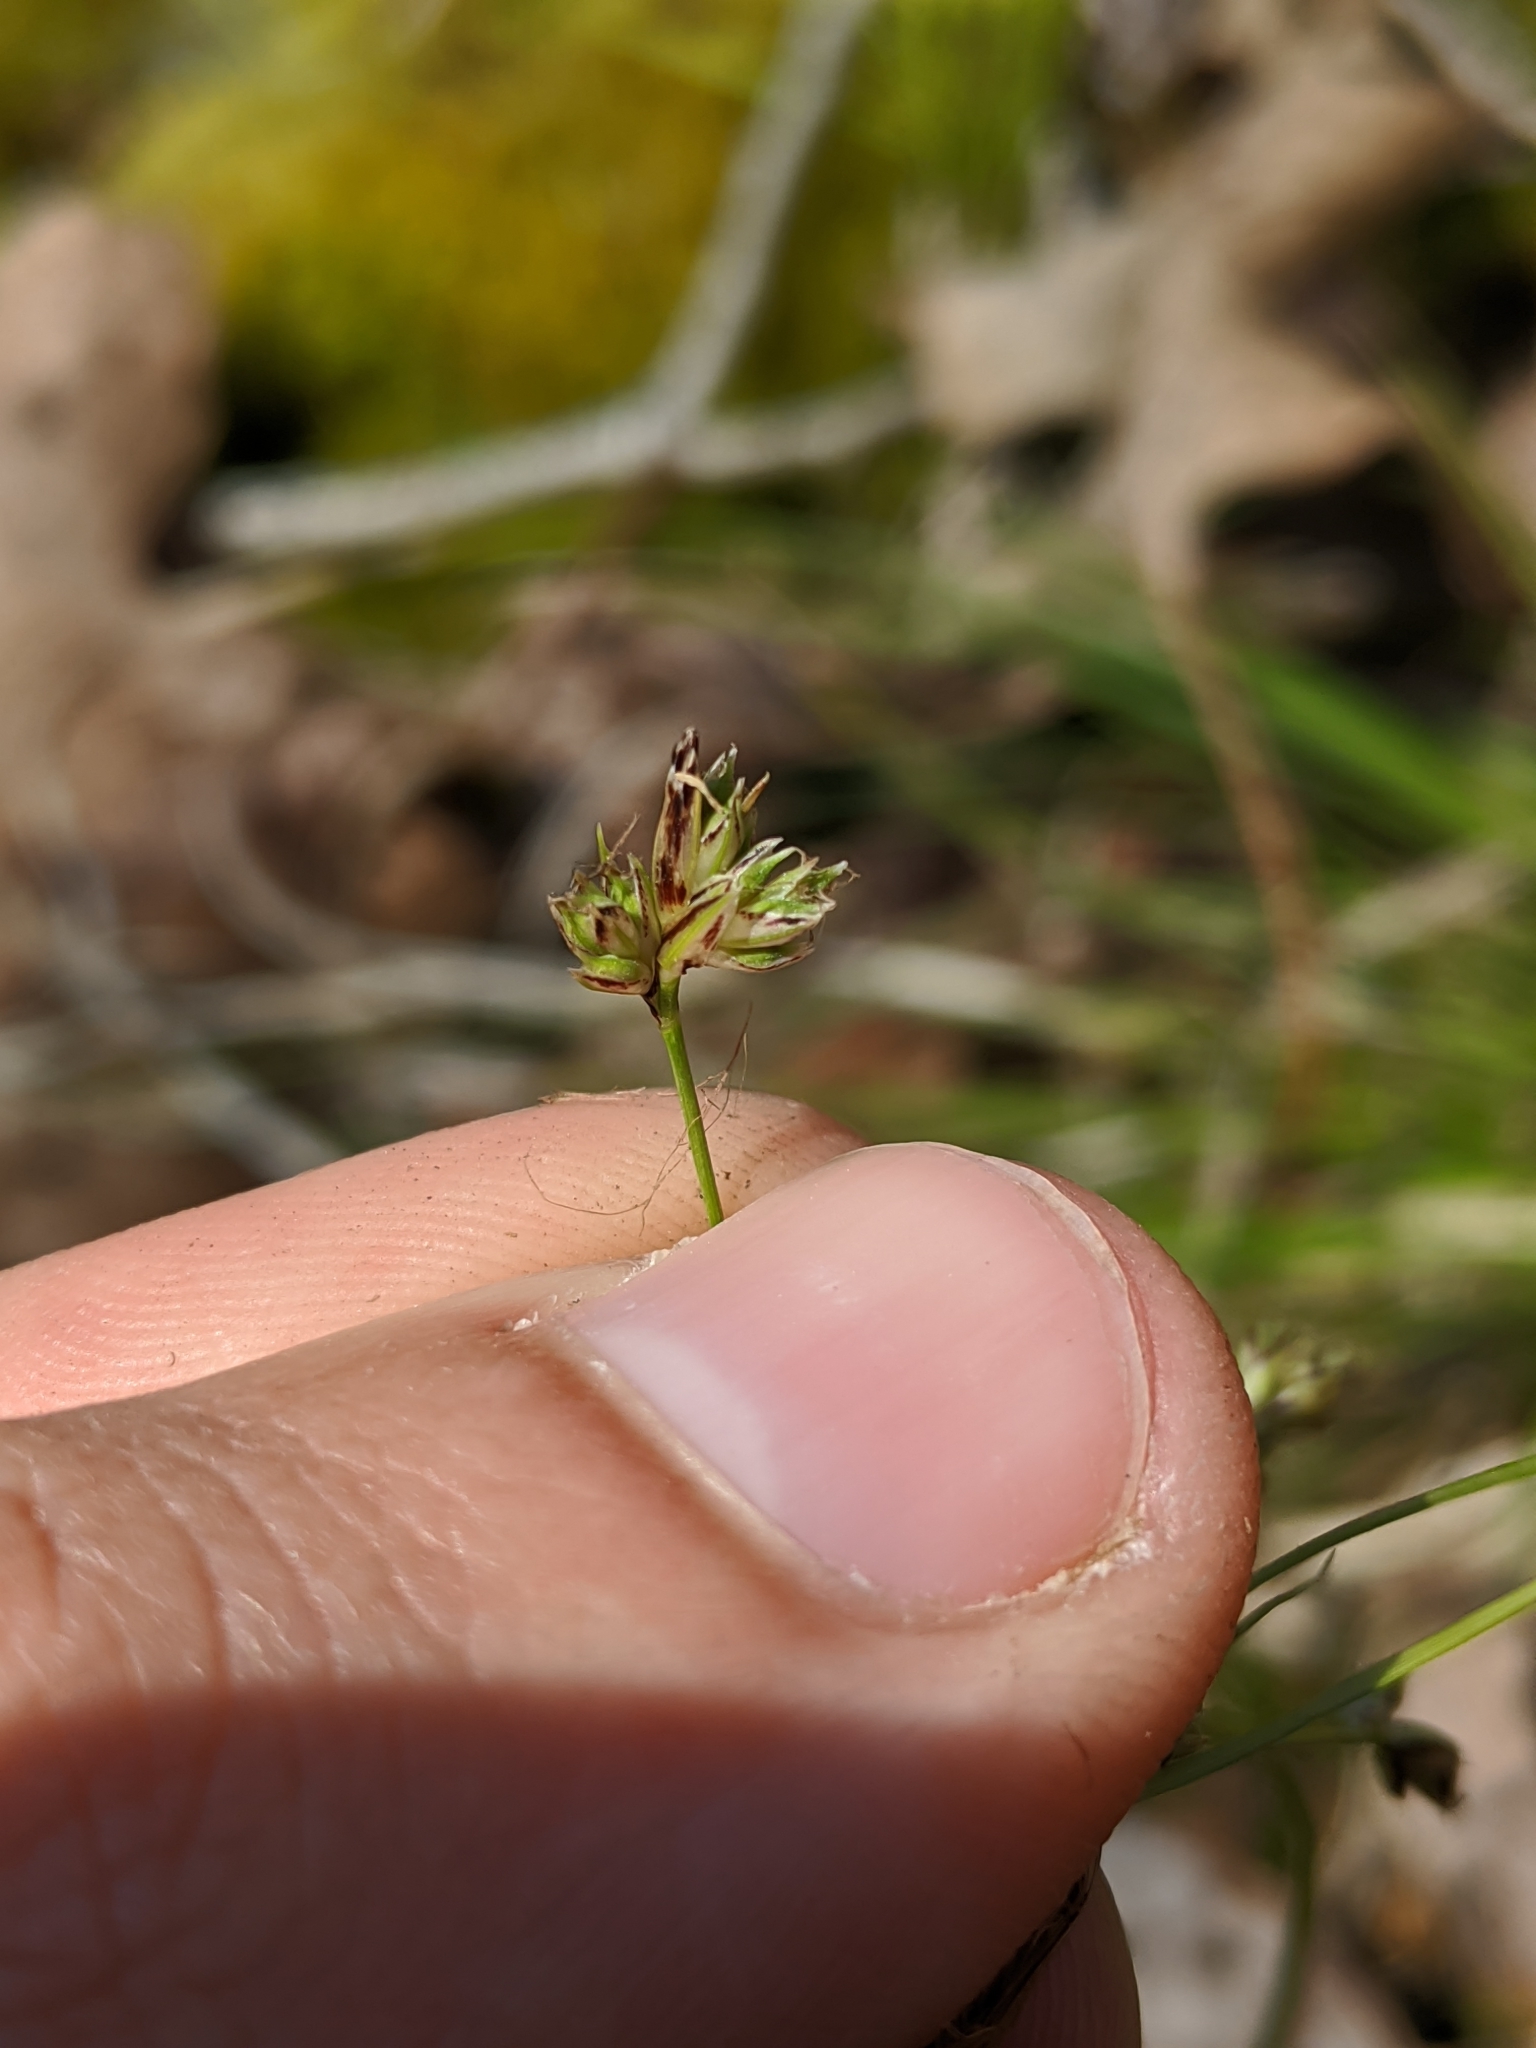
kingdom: Plantae
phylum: Tracheophyta
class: Liliopsida
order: Poales
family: Cyperaceae
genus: Carex
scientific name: Carex nigromarginata
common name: Black-edged sedge
